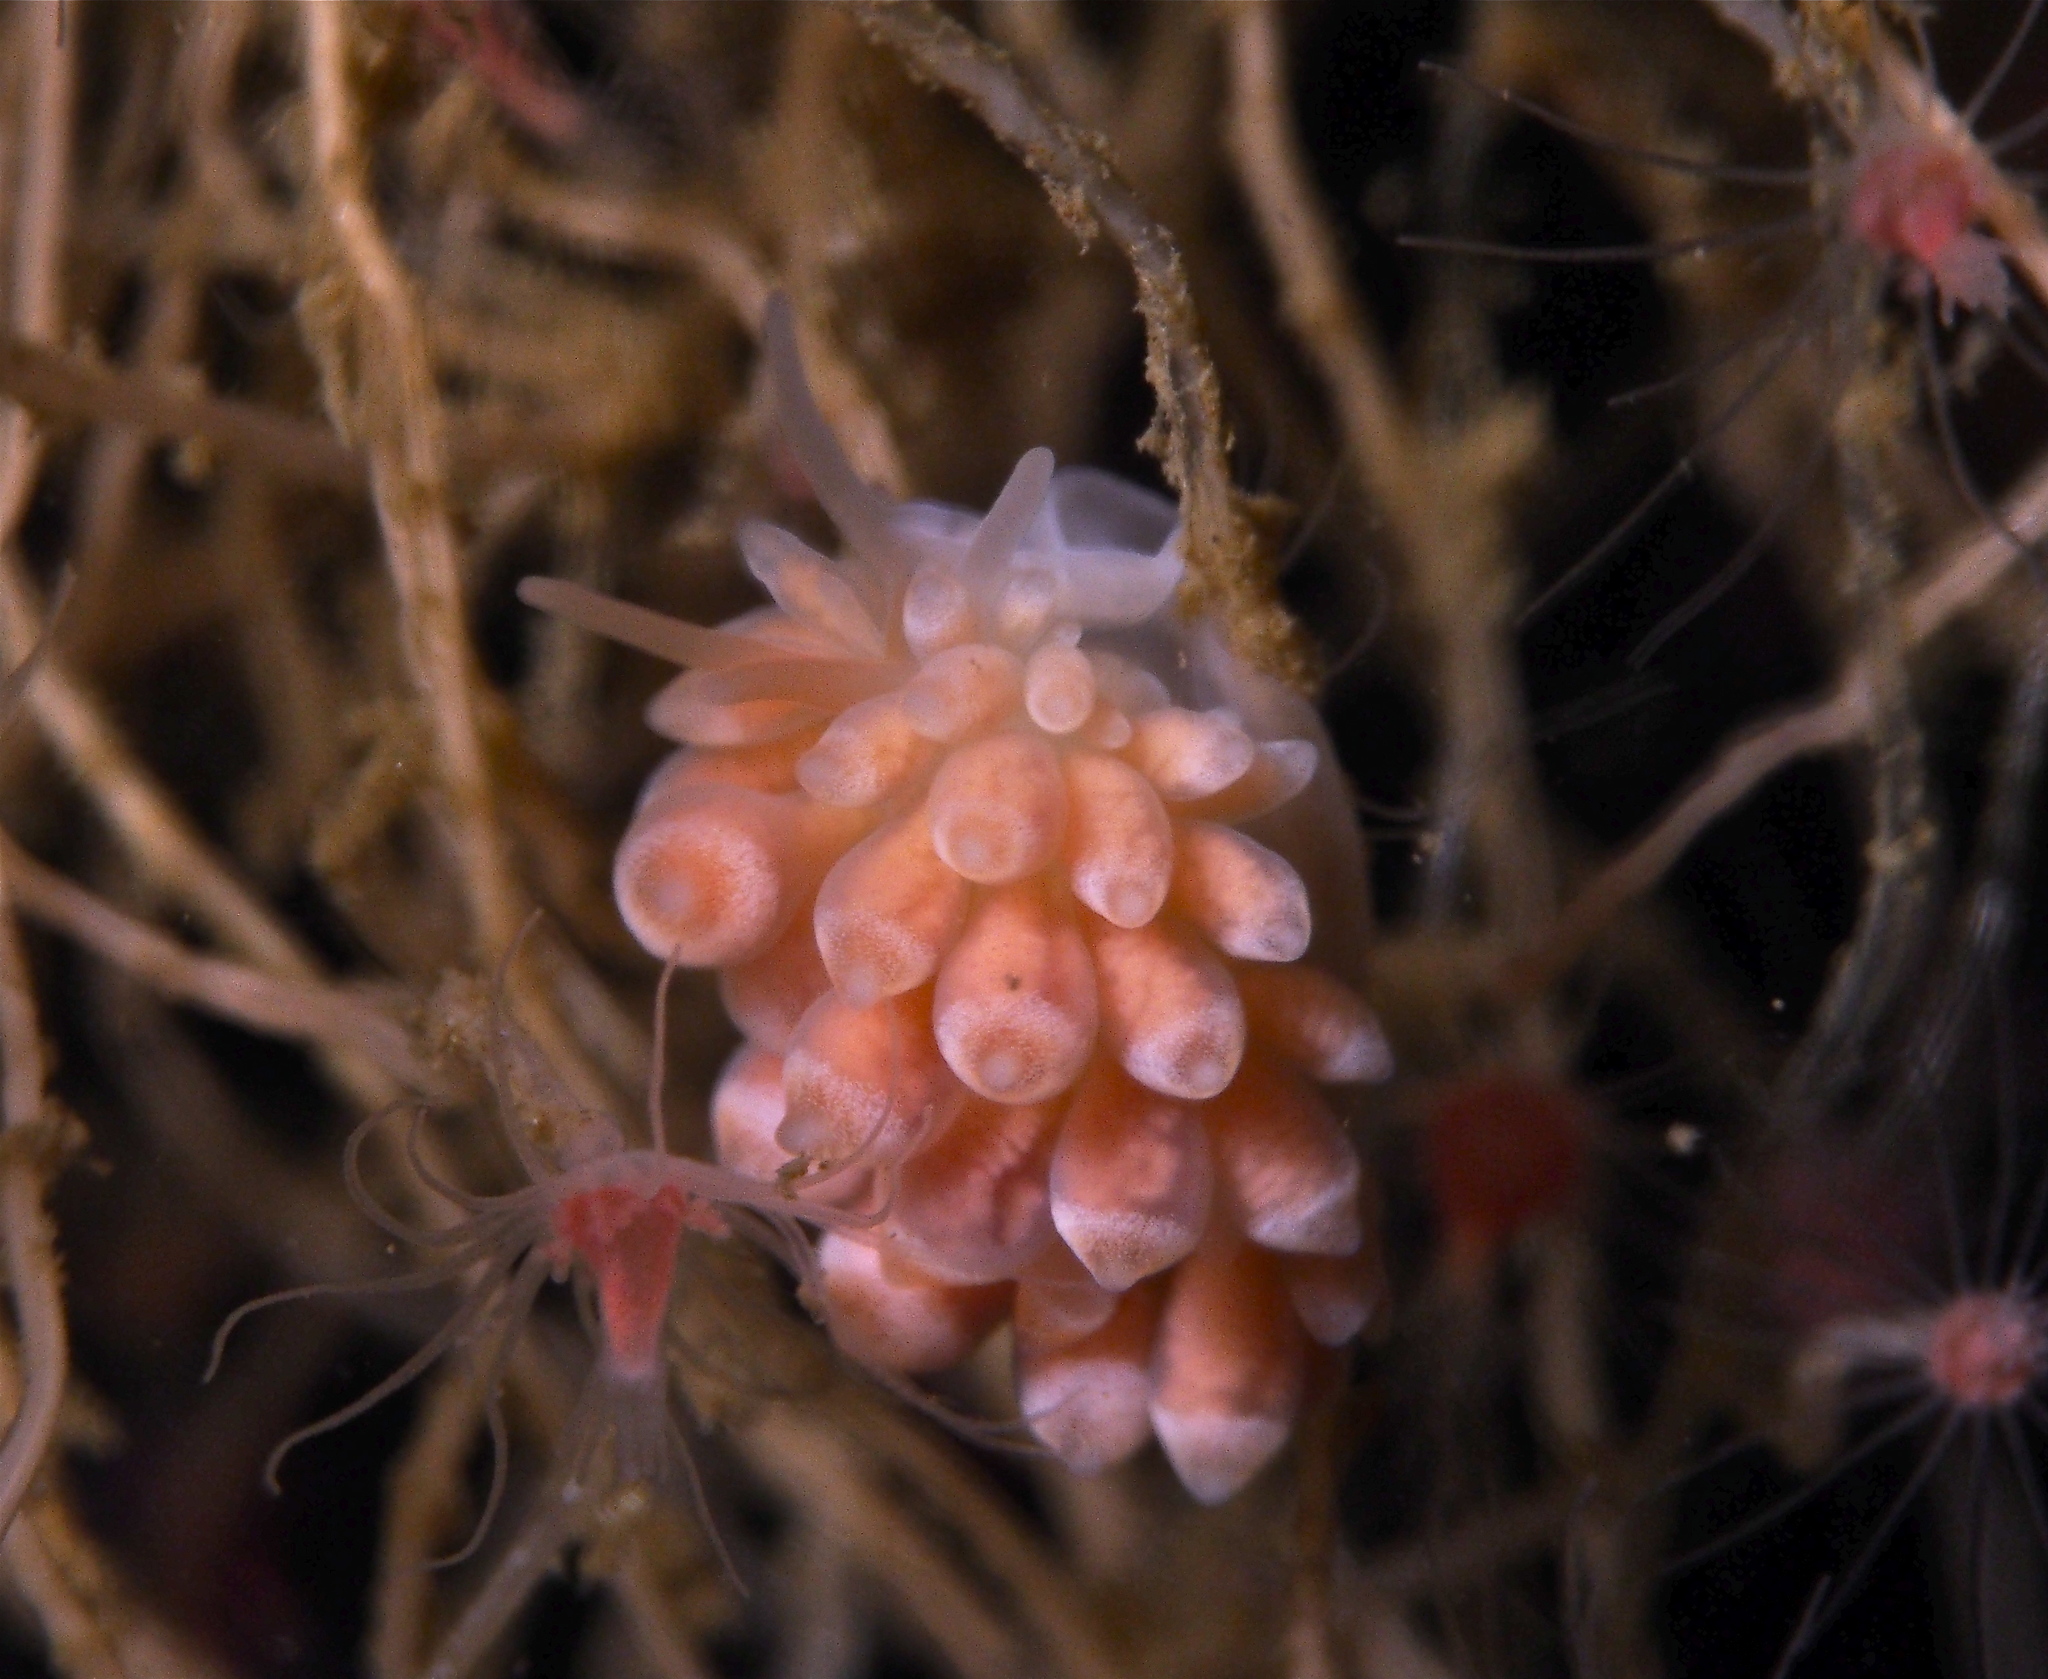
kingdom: Animalia
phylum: Mollusca
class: Gastropoda
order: Nudibranchia
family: Trinchesiidae
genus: Catriona
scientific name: Catriona aurantia
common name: Corange-tip cuthona
